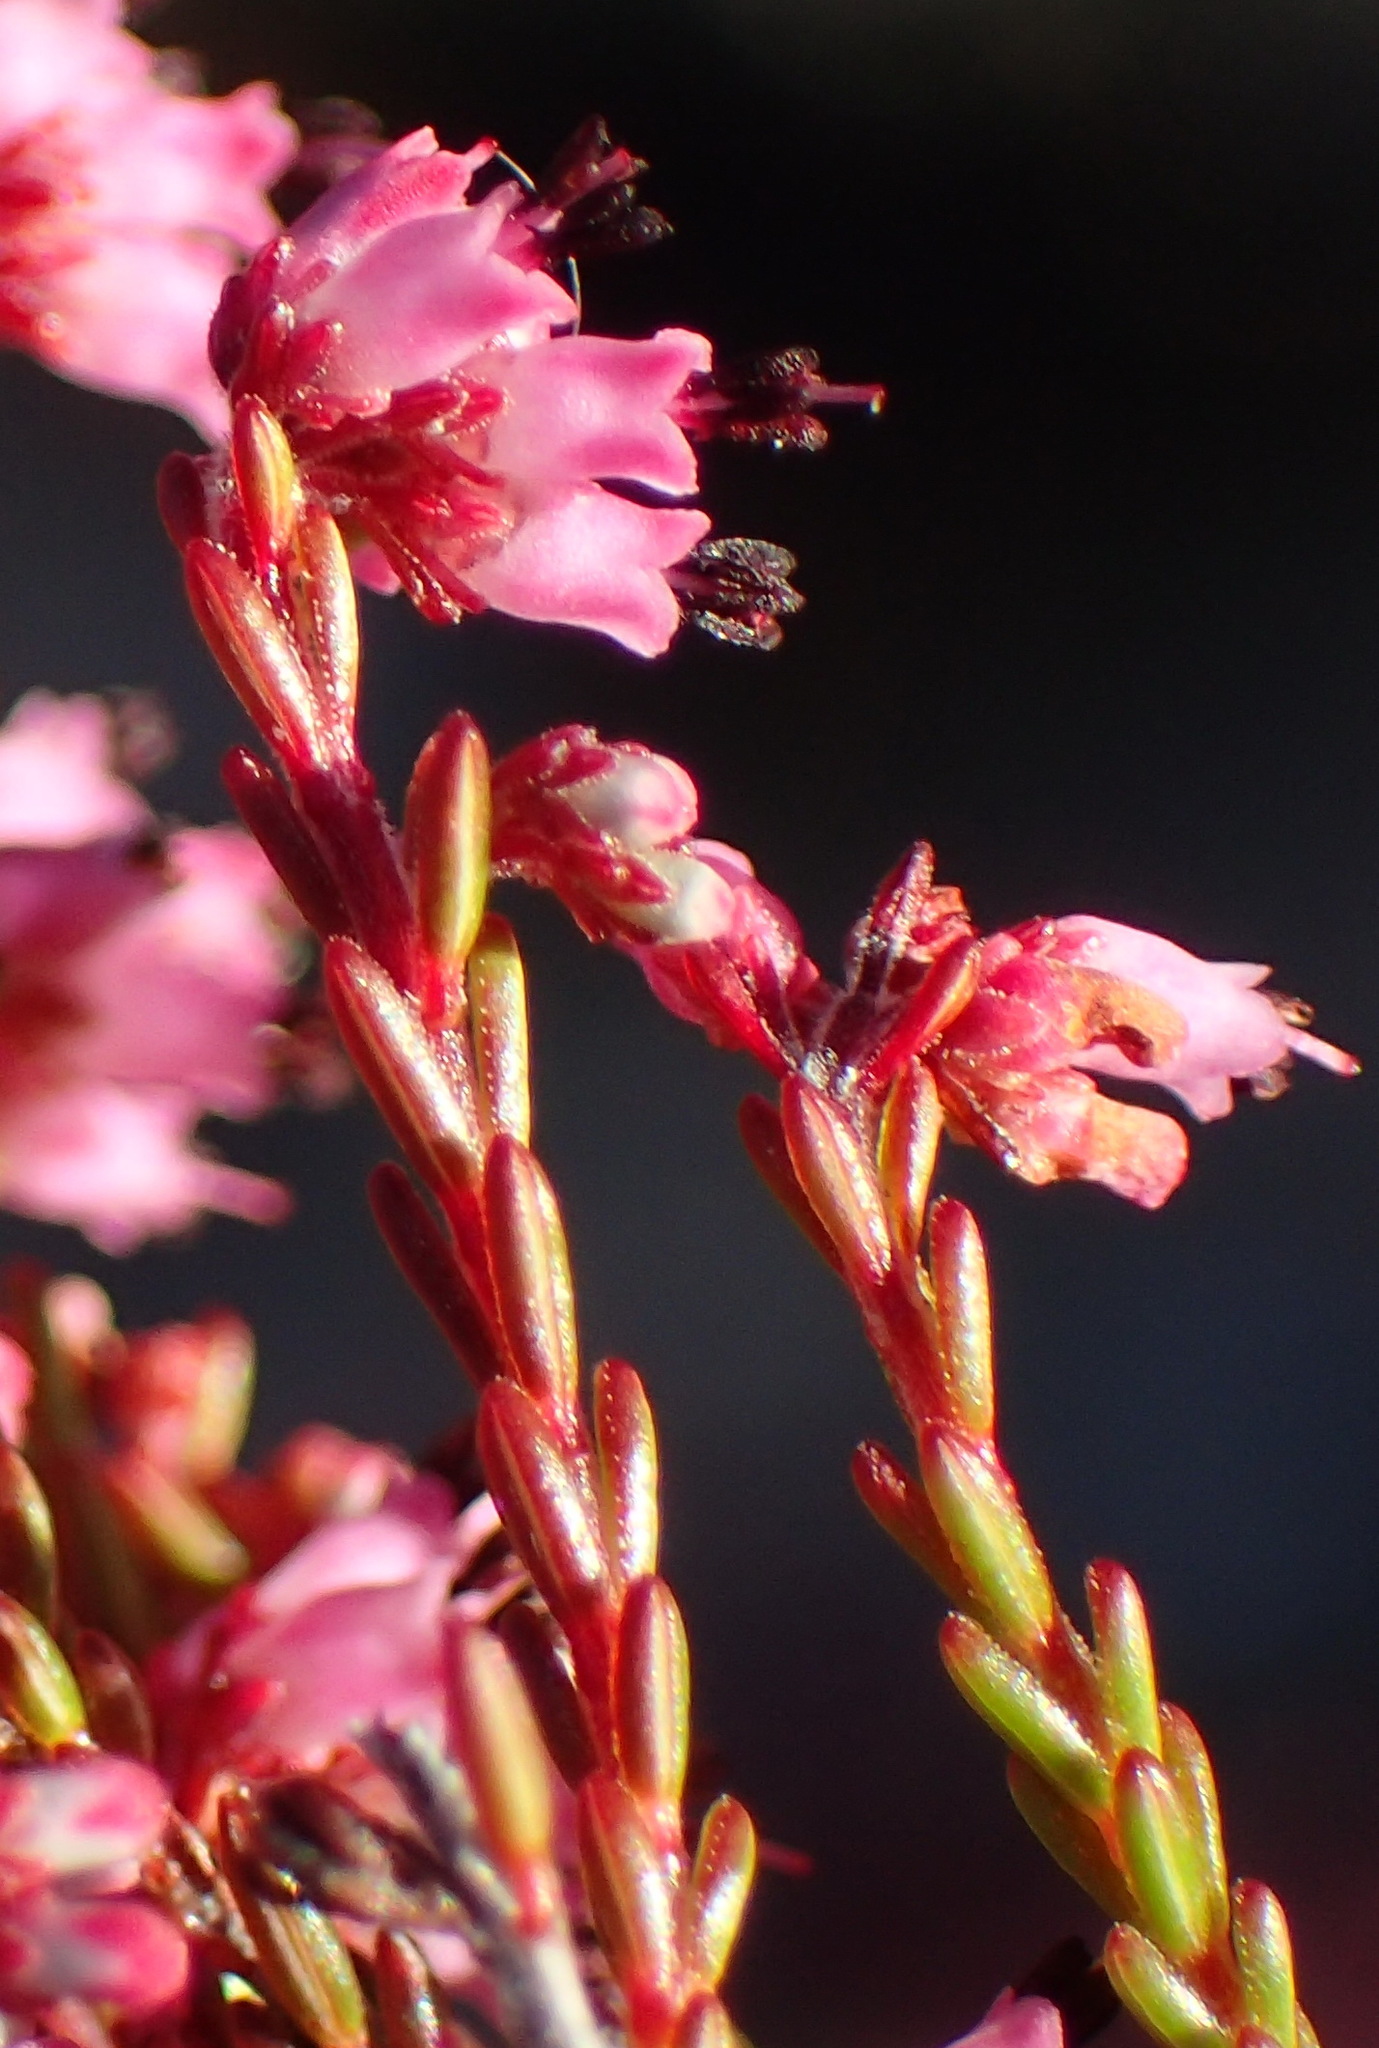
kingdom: Plantae
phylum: Tracheophyta
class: Magnoliopsida
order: Ericales
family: Ericaceae
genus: Erica
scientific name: Erica rosacea
